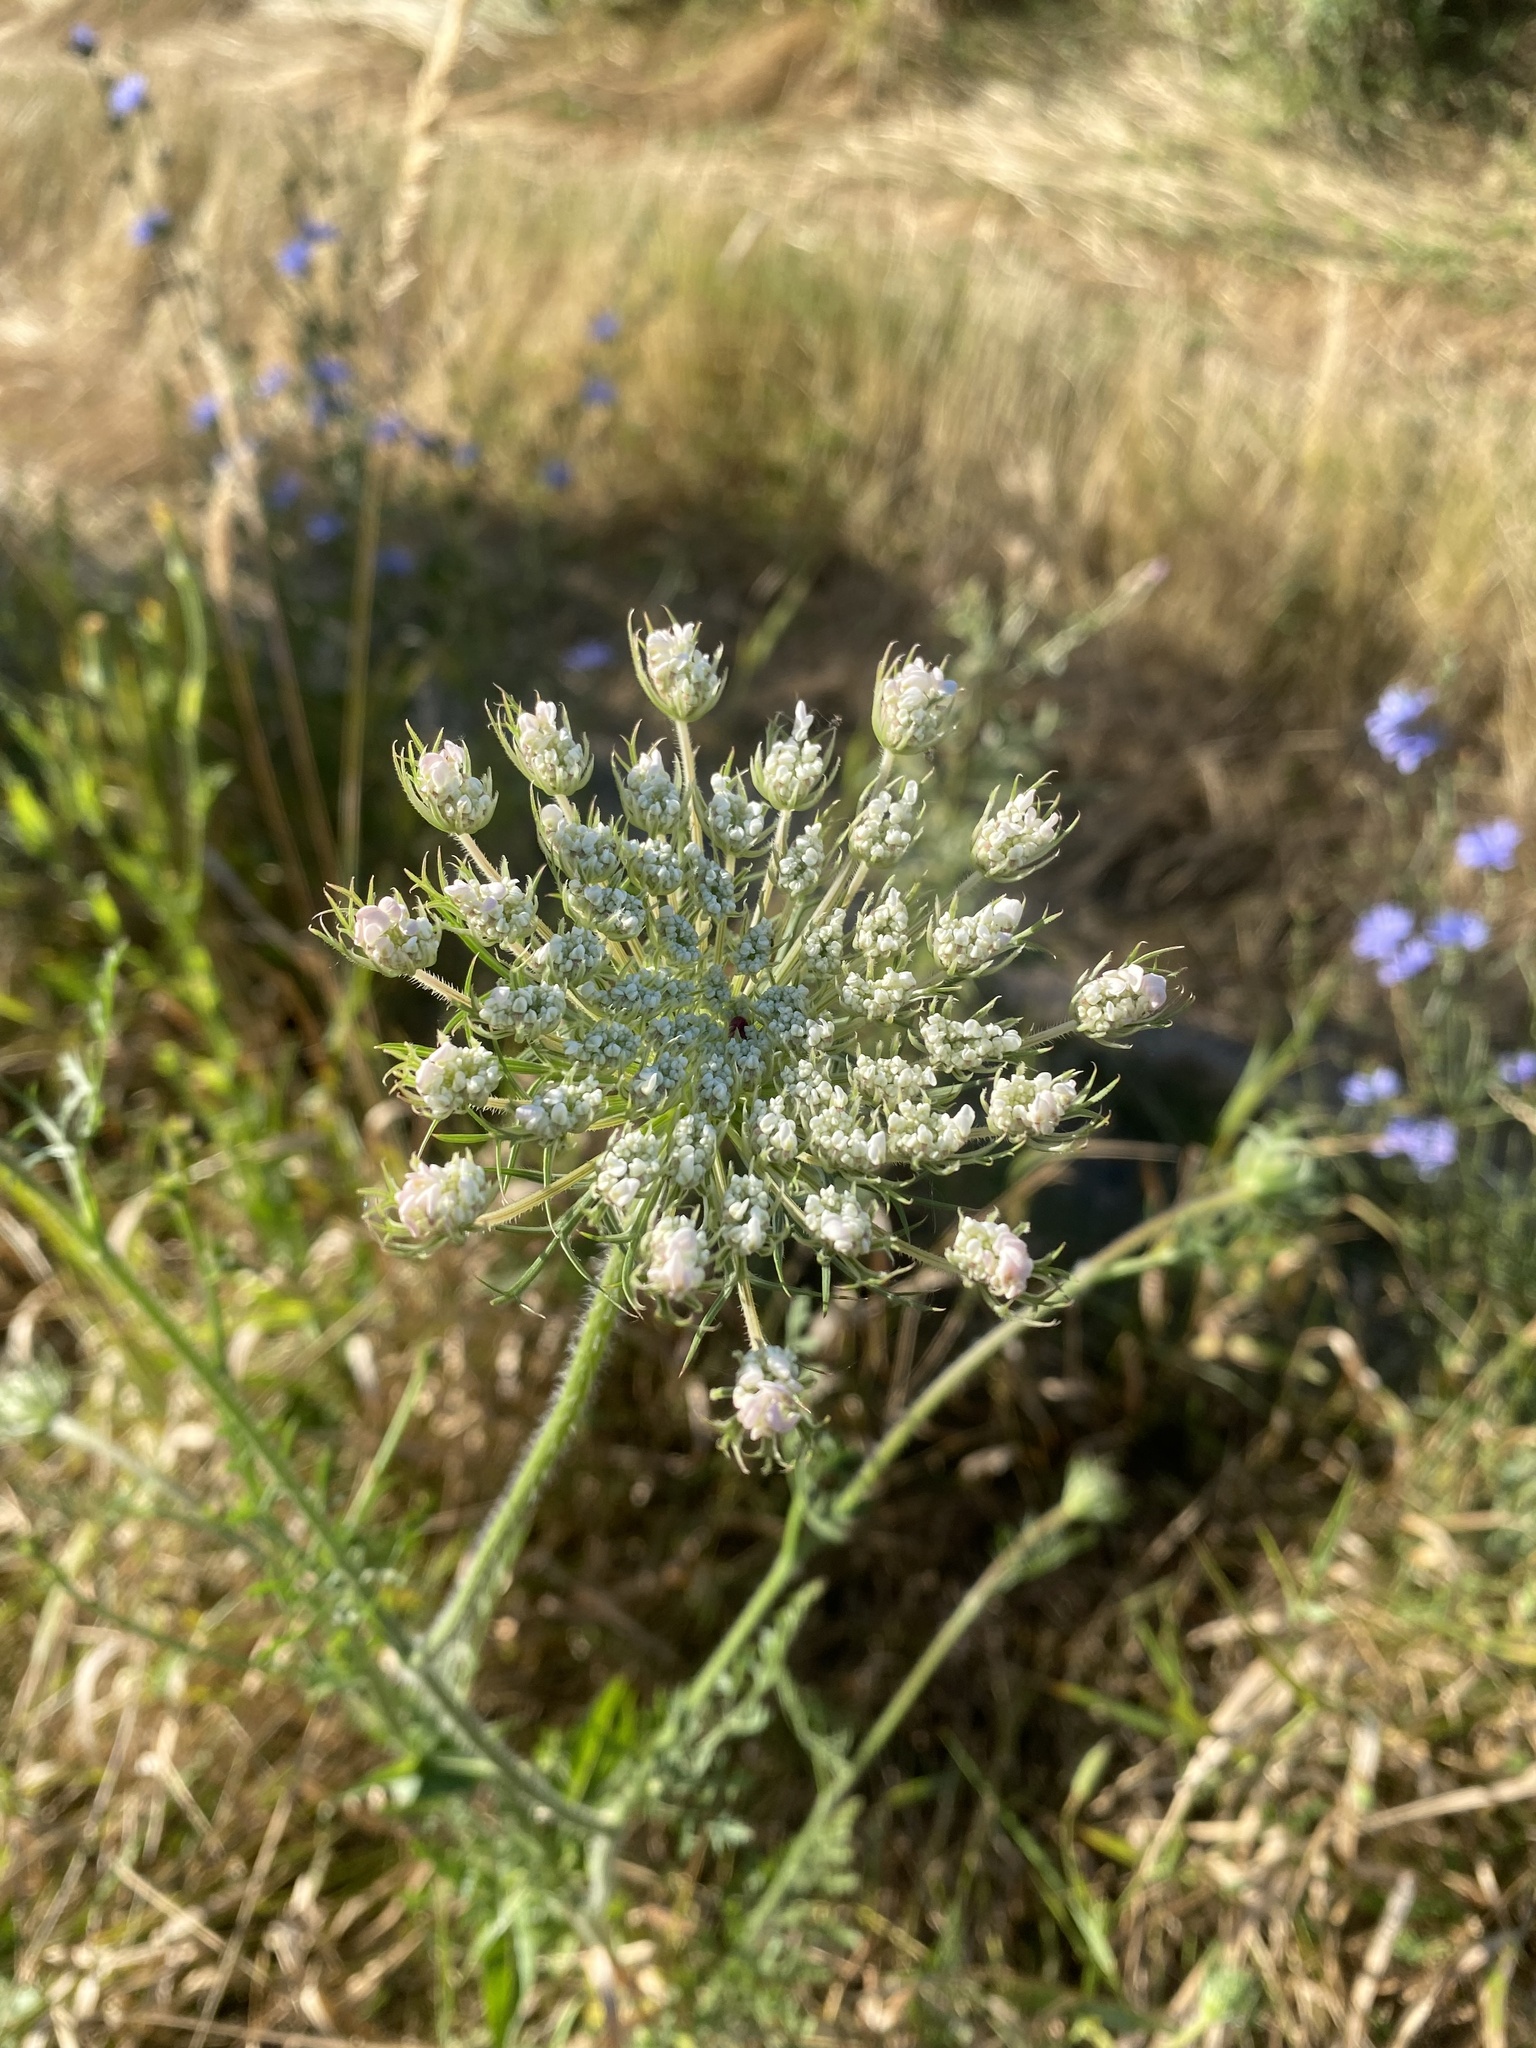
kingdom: Plantae
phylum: Tracheophyta
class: Magnoliopsida
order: Apiales
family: Apiaceae
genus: Daucus
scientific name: Daucus carota
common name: Wild carrot
